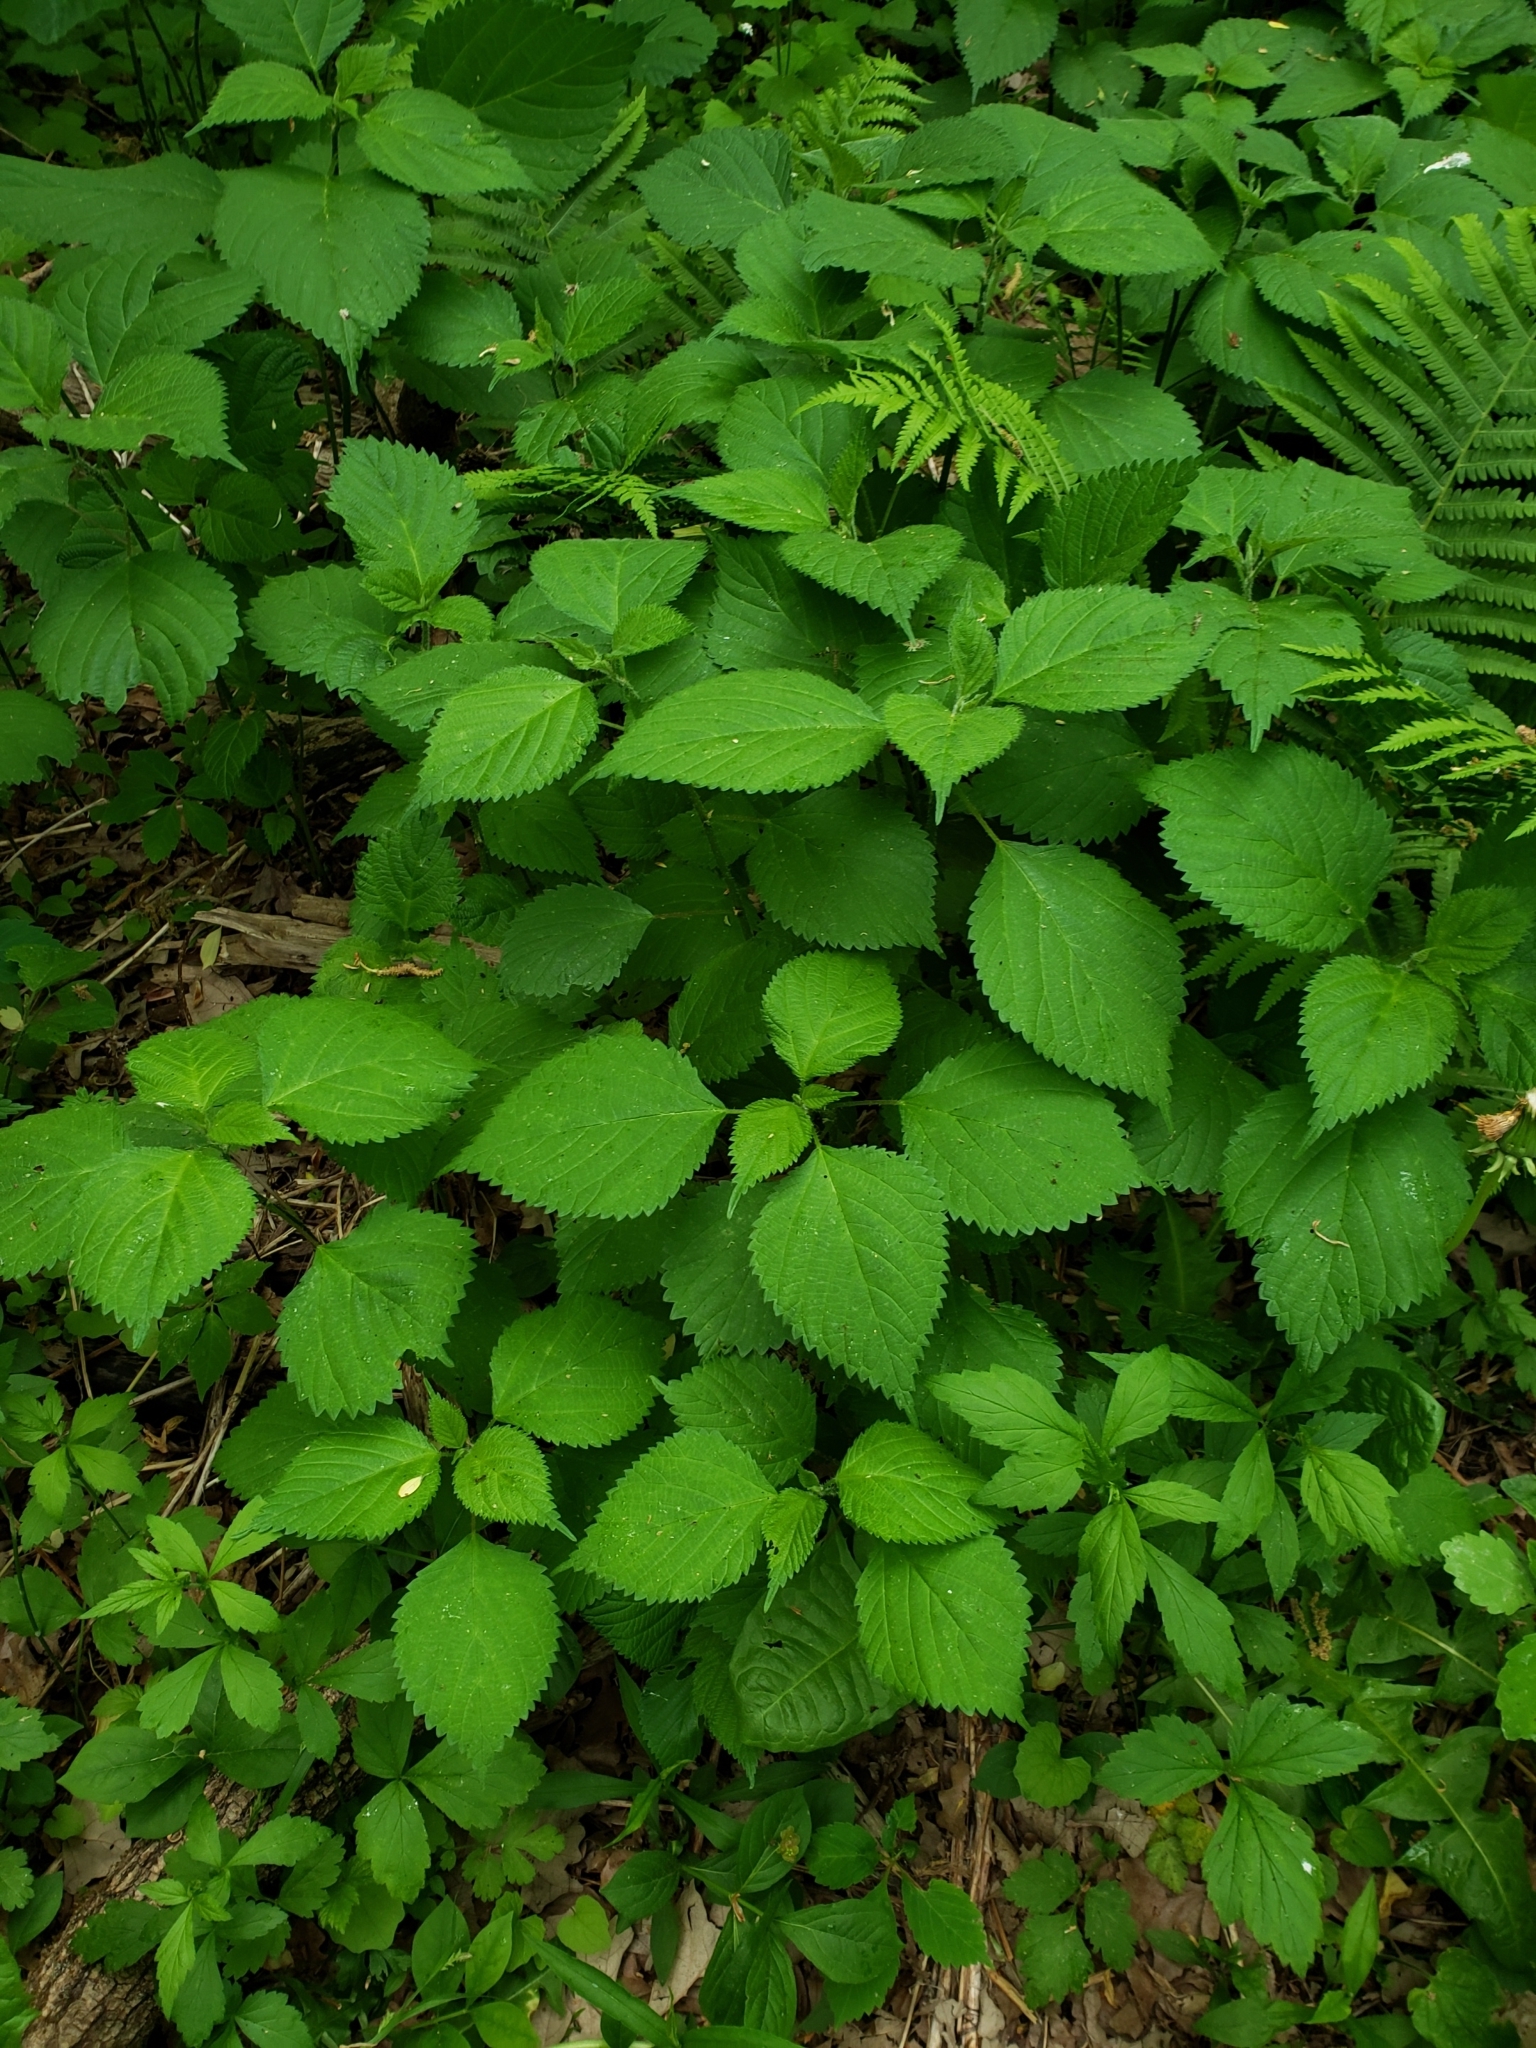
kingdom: Plantae
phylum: Tracheophyta
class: Magnoliopsida
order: Rosales
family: Urticaceae
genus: Laportea
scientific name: Laportea canadensis
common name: Canada nettle
